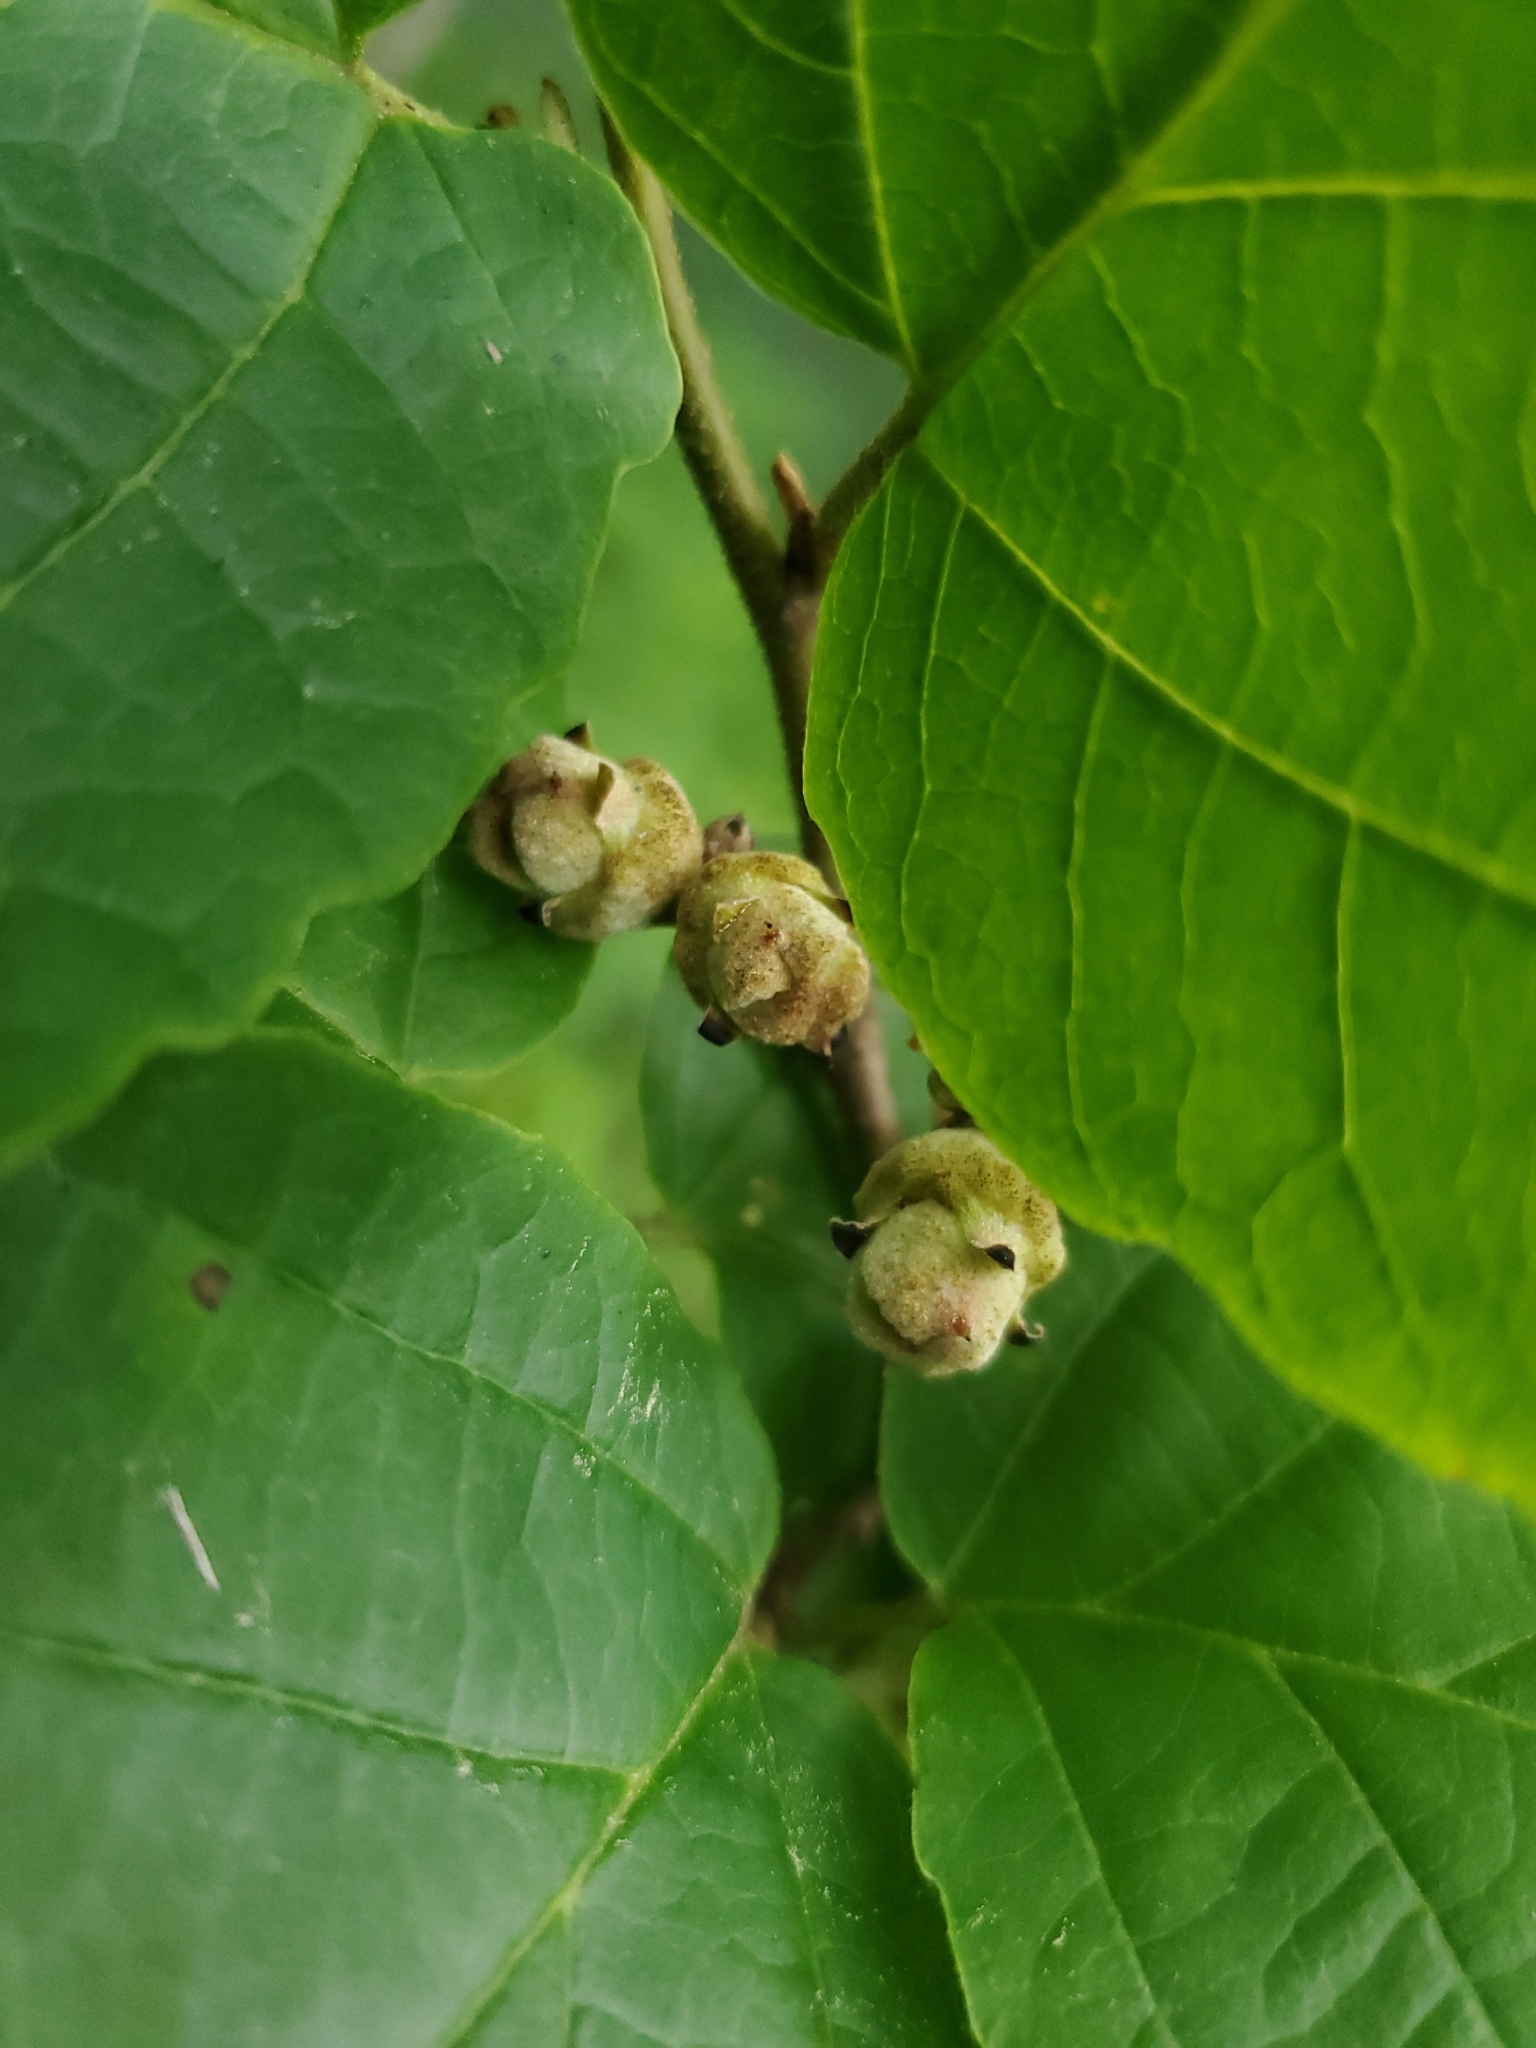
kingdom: Plantae
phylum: Tracheophyta
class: Magnoliopsida
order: Saxifragales
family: Hamamelidaceae
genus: Hamamelis
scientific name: Hamamelis virginiana
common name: Witch-hazel
